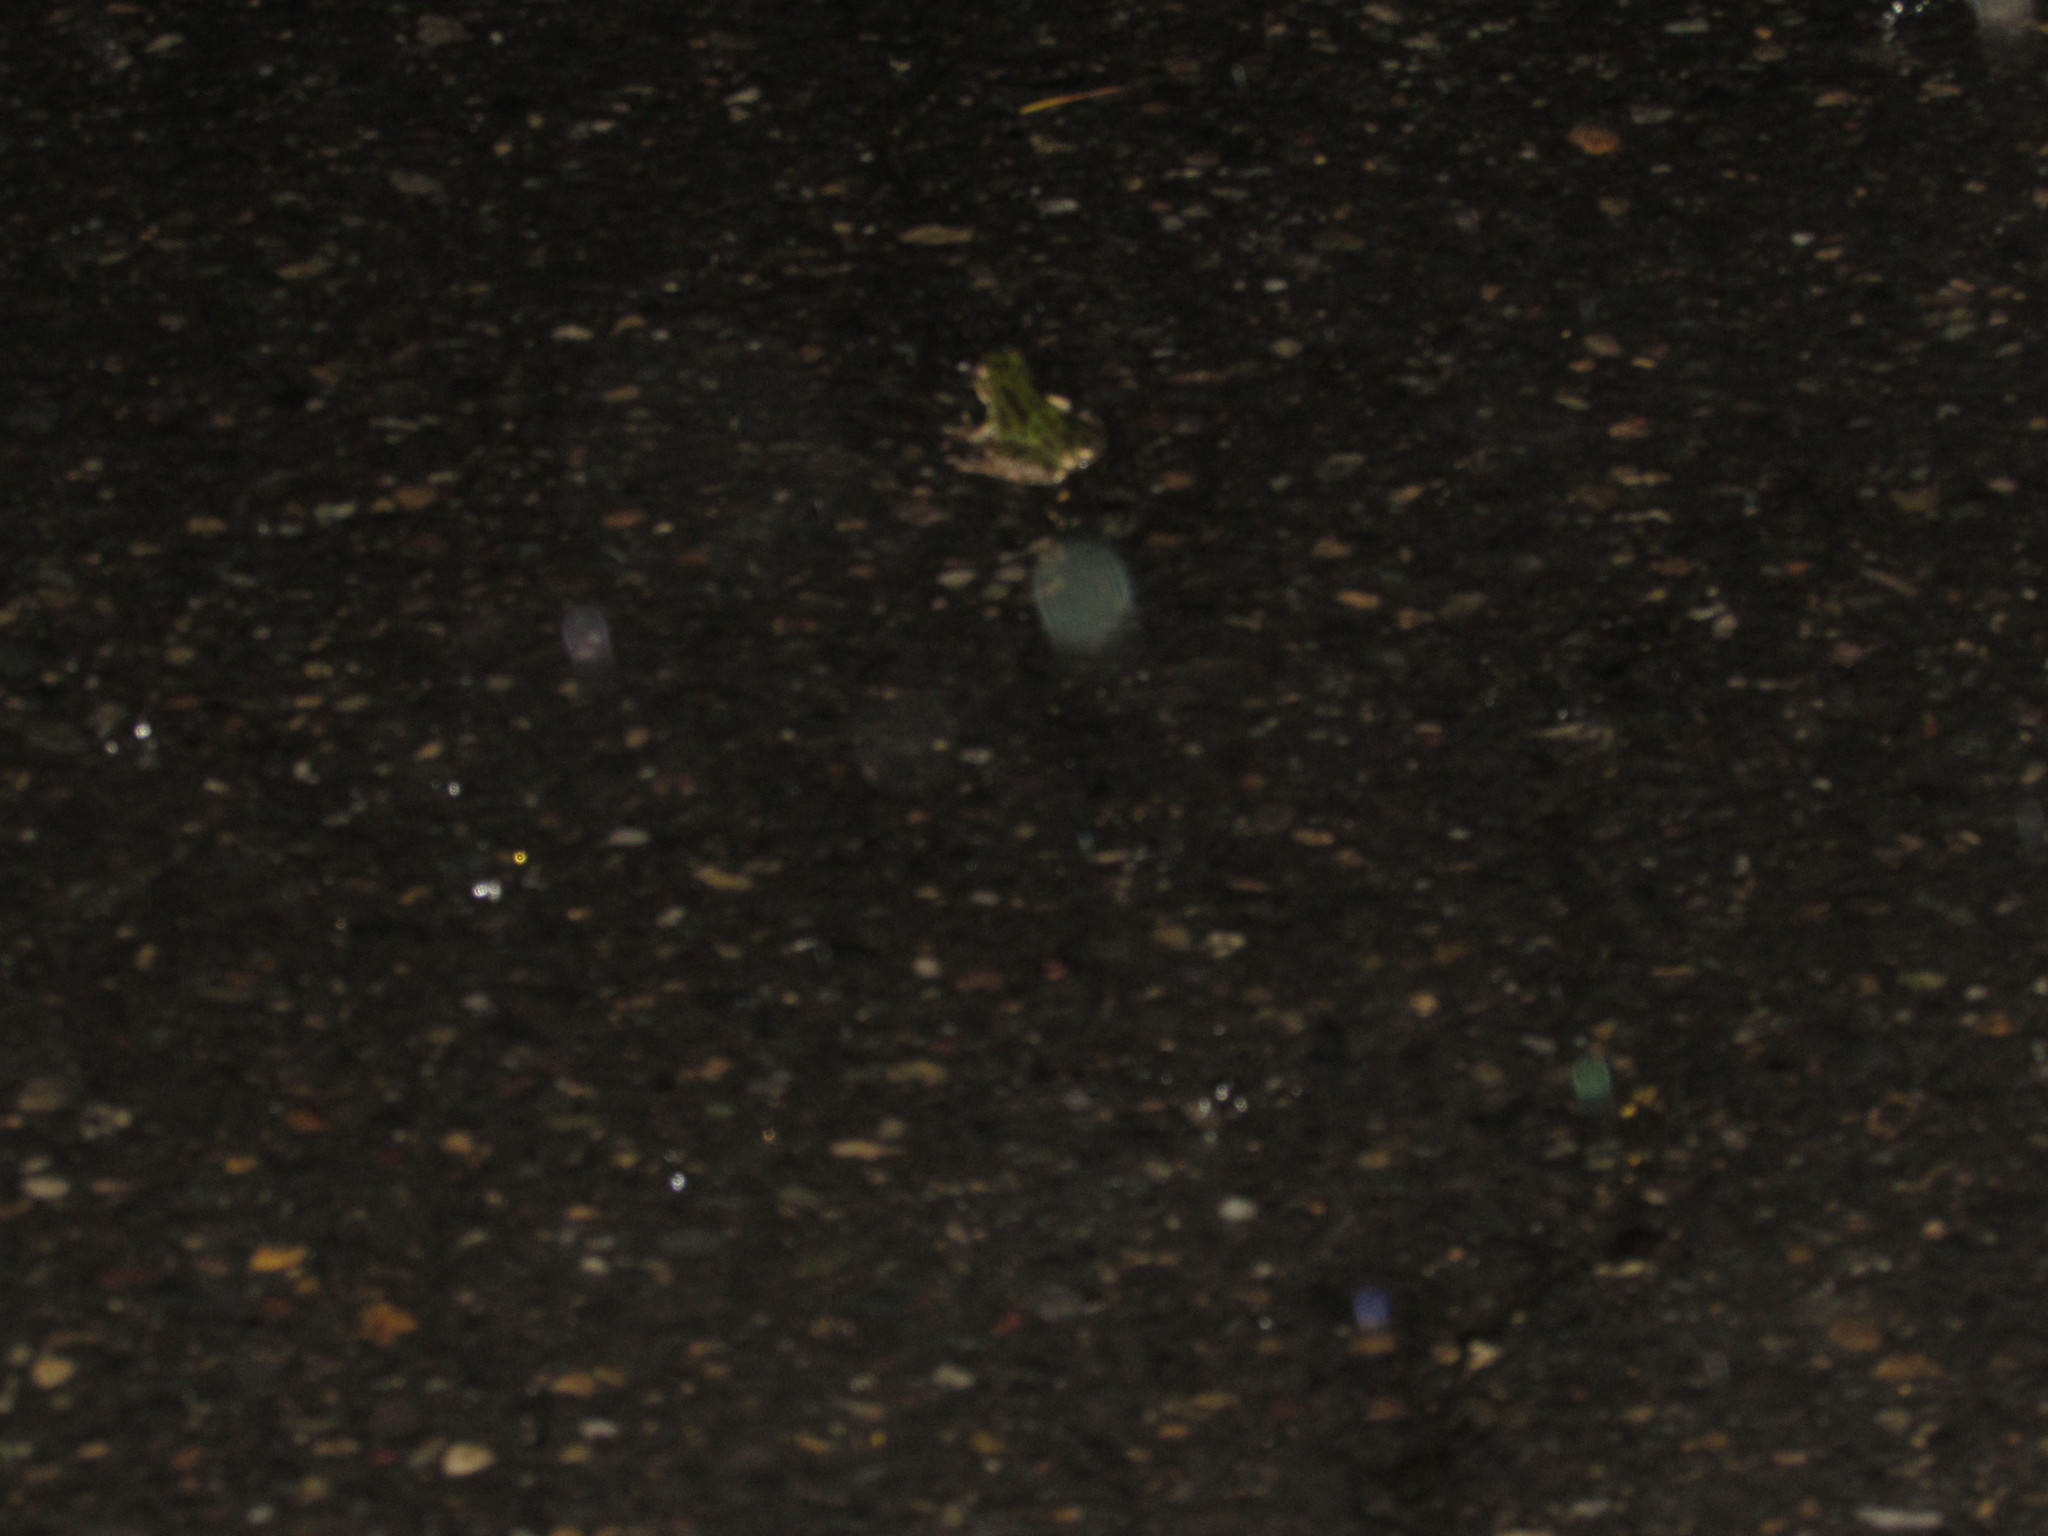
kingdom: Animalia
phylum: Chordata
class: Amphibia
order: Anura
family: Hylidae
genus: Pseudacris
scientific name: Pseudacris regilla
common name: Pacific chorus frog
